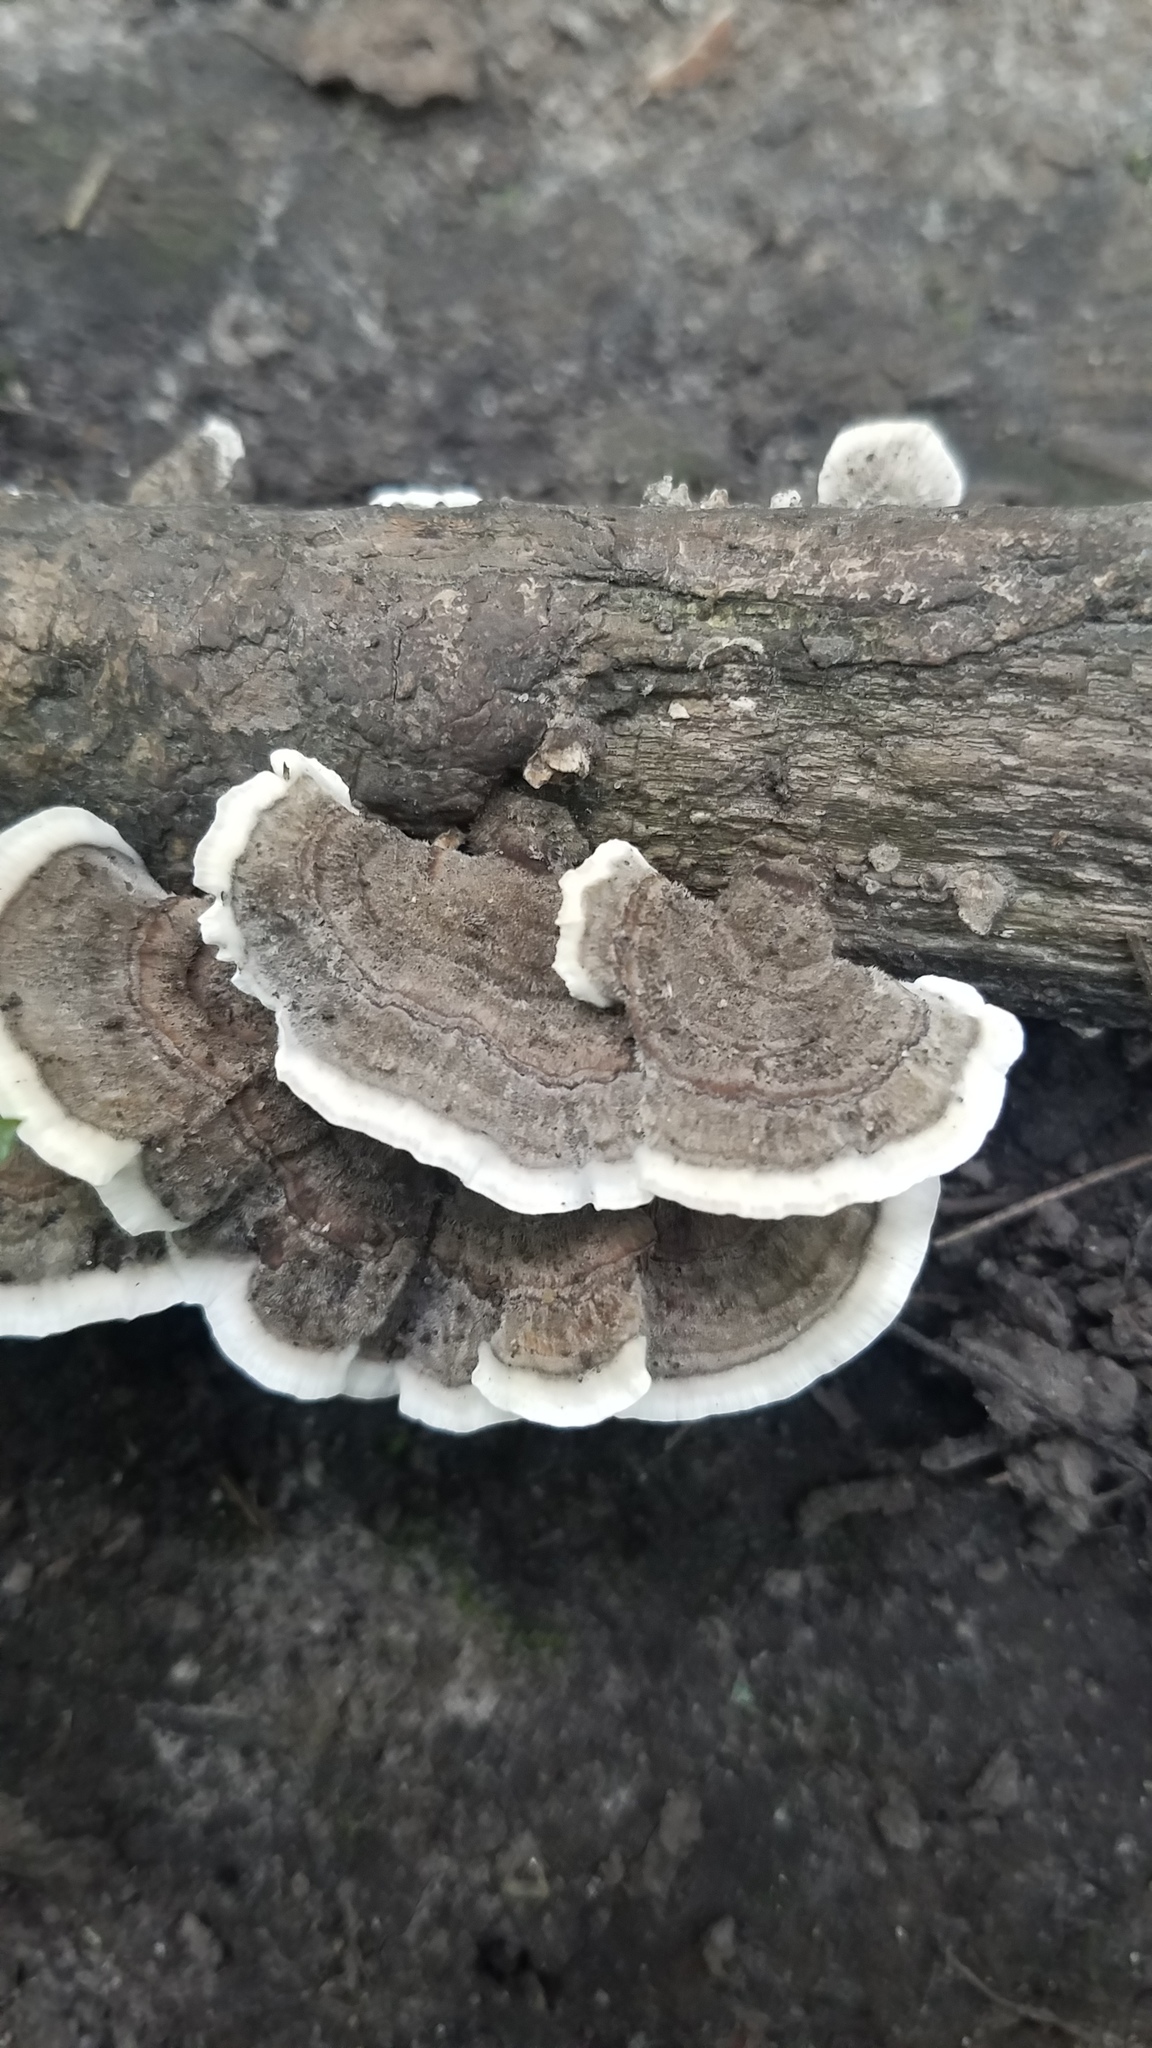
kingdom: Fungi
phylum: Basidiomycota
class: Agaricomycetes
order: Polyporales
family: Polyporaceae
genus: Trametes
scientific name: Trametes versicolor
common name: Turkeytail
